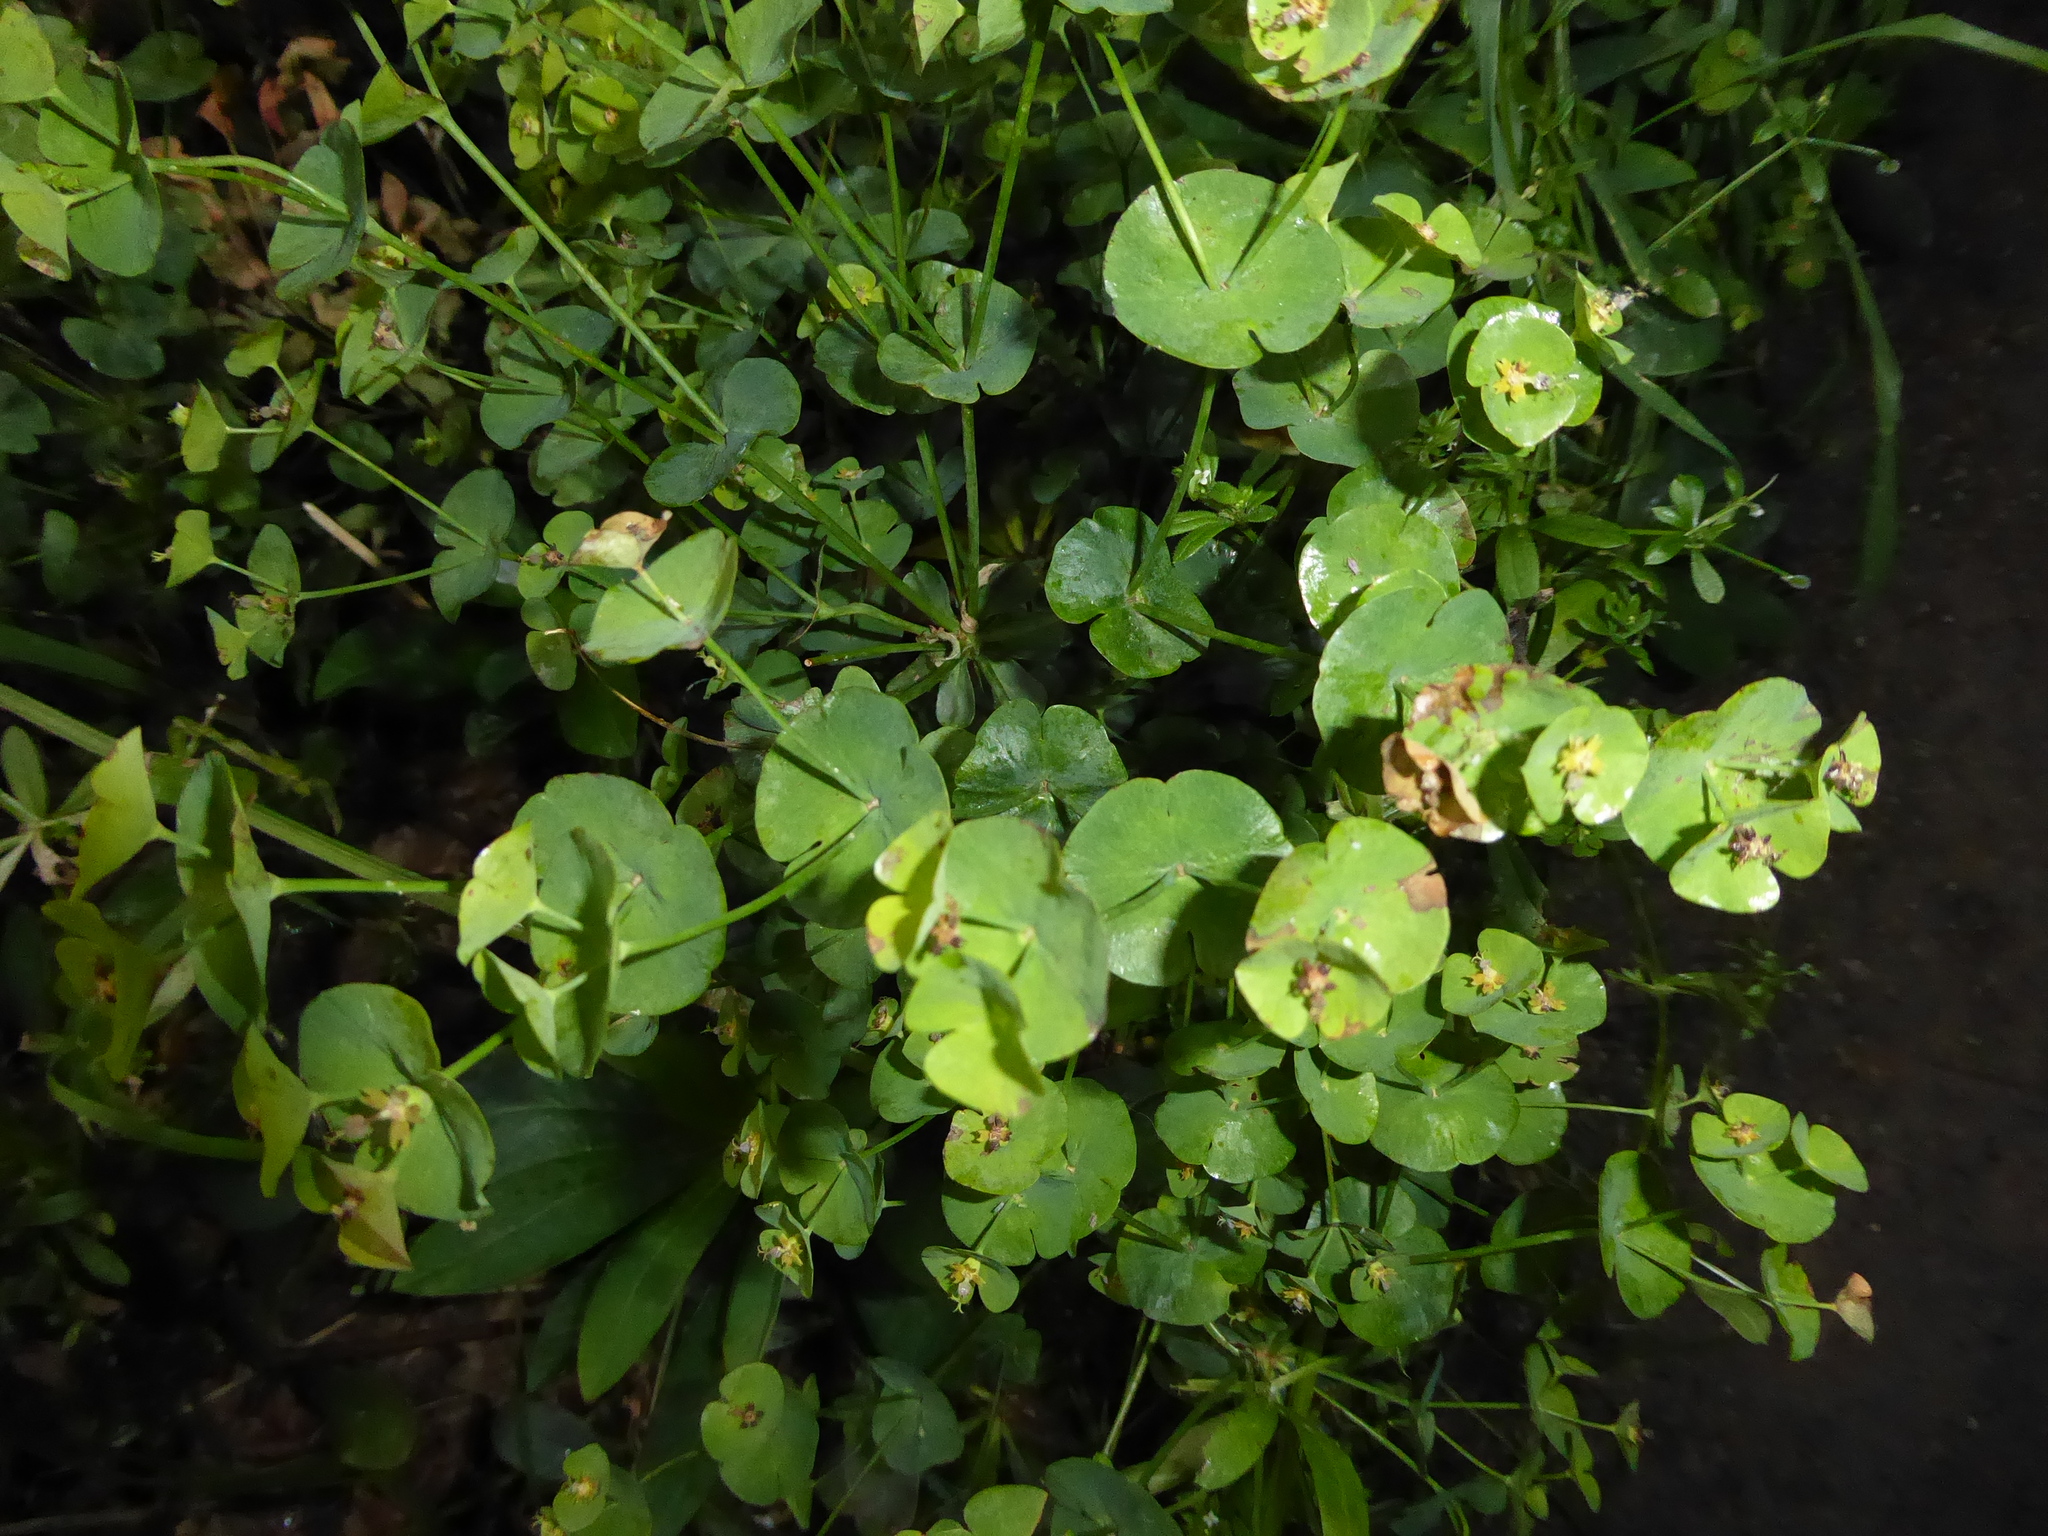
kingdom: Plantae
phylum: Tracheophyta
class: Magnoliopsida
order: Malpighiales
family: Euphorbiaceae
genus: Euphorbia
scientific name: Euphorbia amygdaloides
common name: Wood spurge
